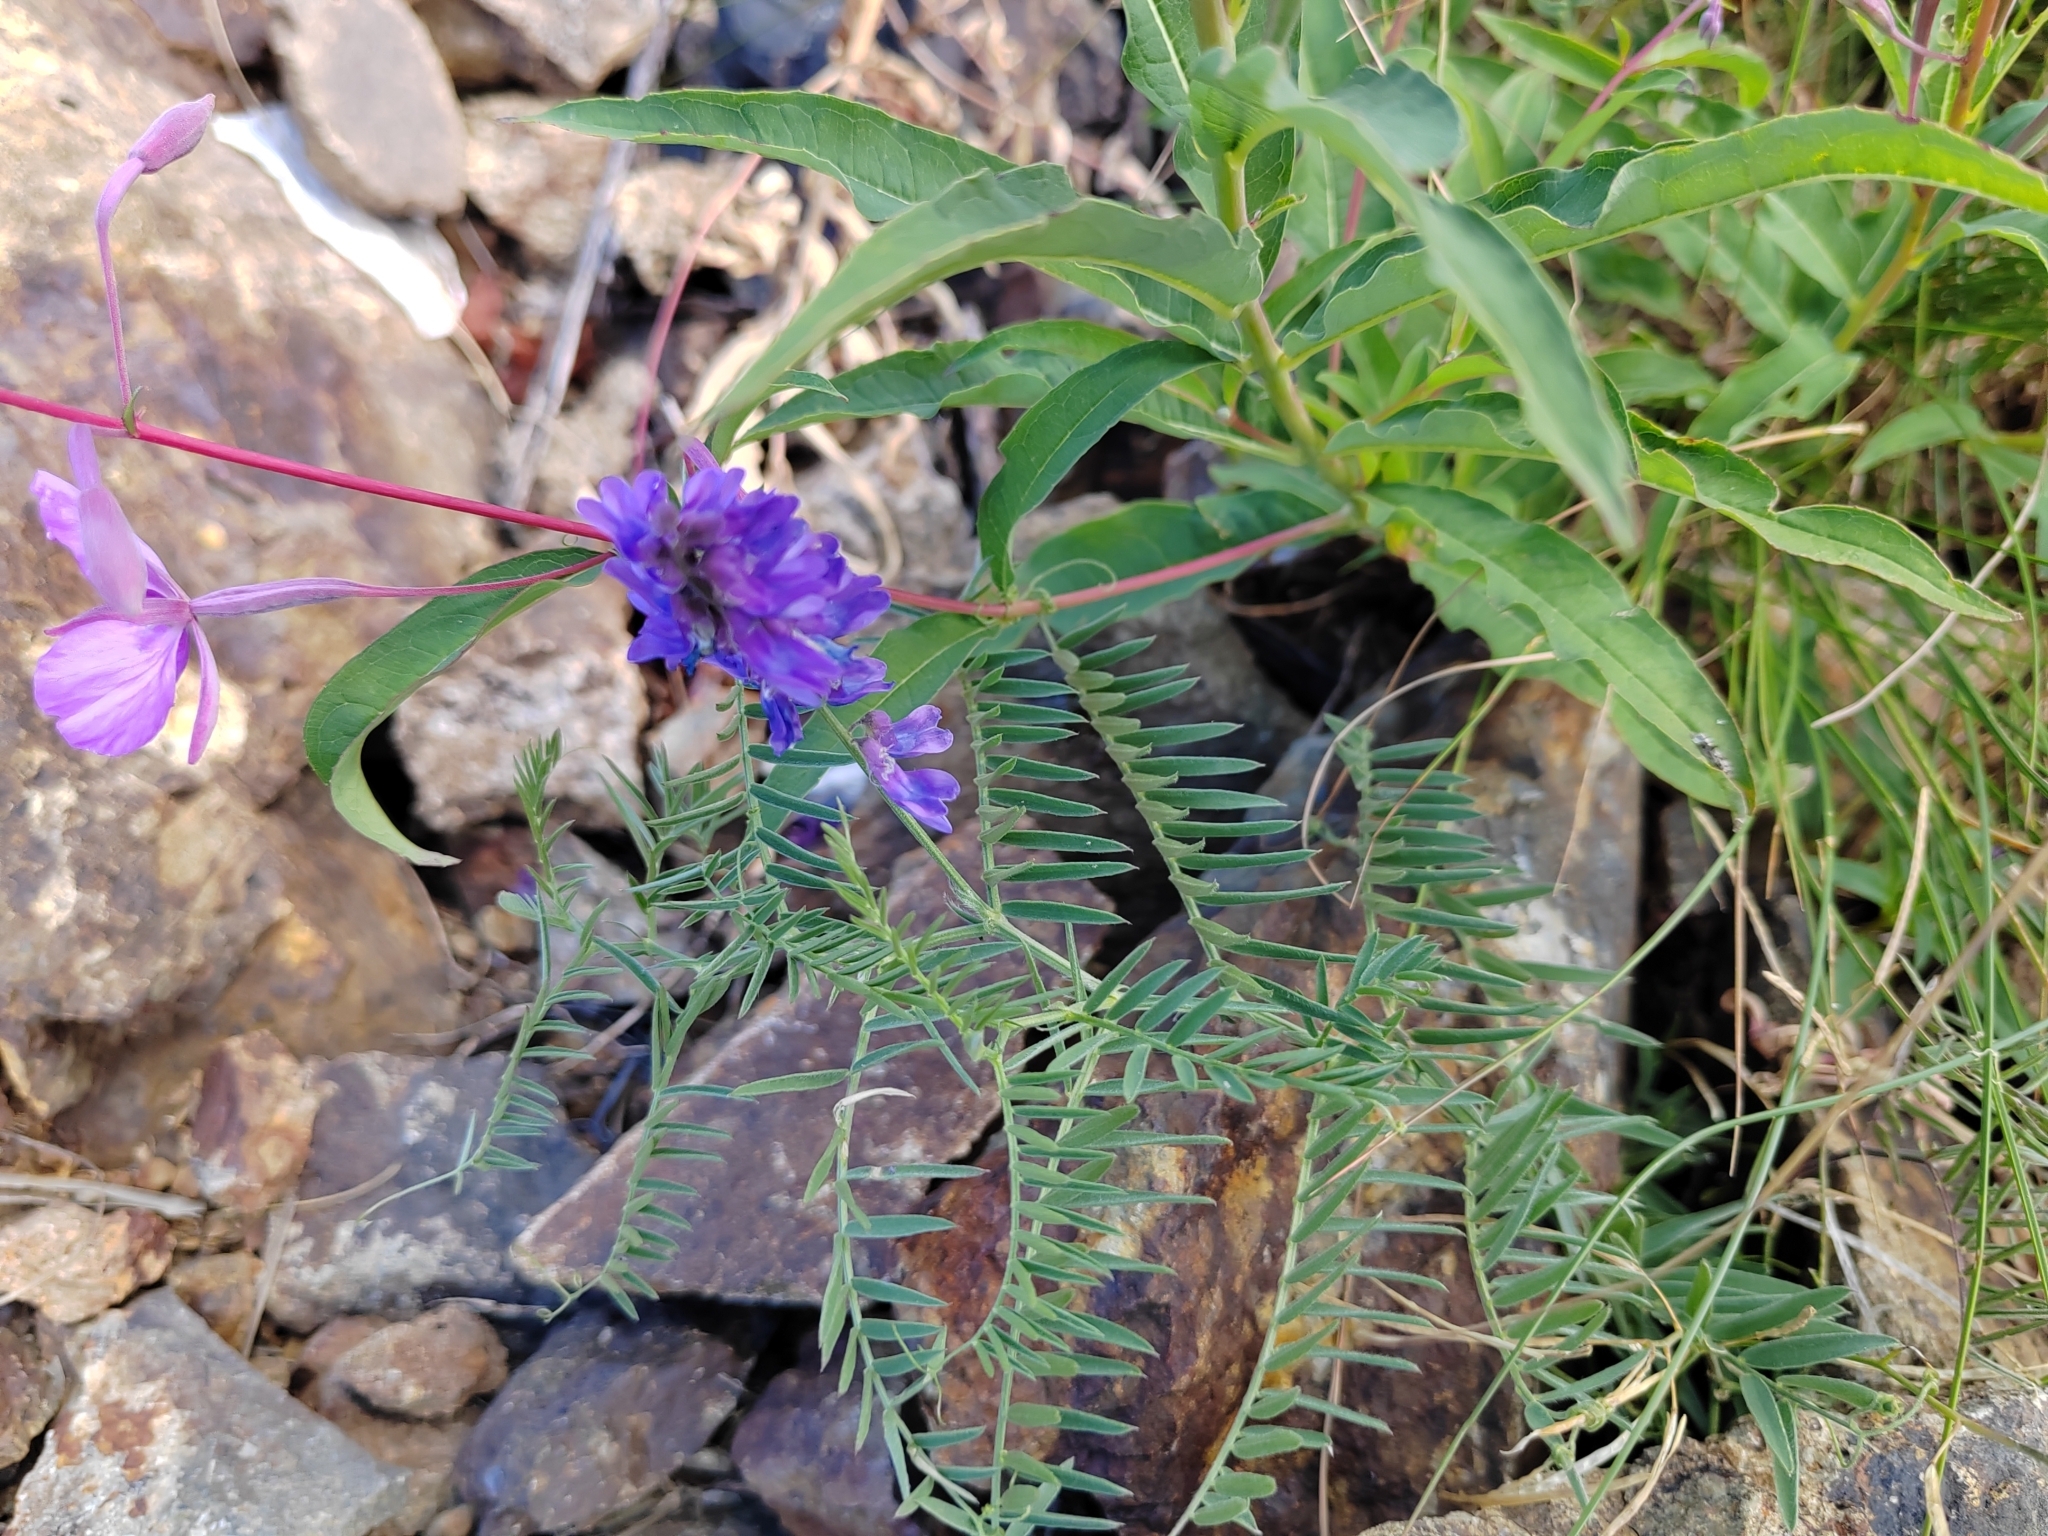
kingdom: Plantae
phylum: Tracheophyta
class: Magnoliopsida
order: Fabales
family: Fabaceae
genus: Vicia
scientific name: Vicia cracca
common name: Bird vetch
